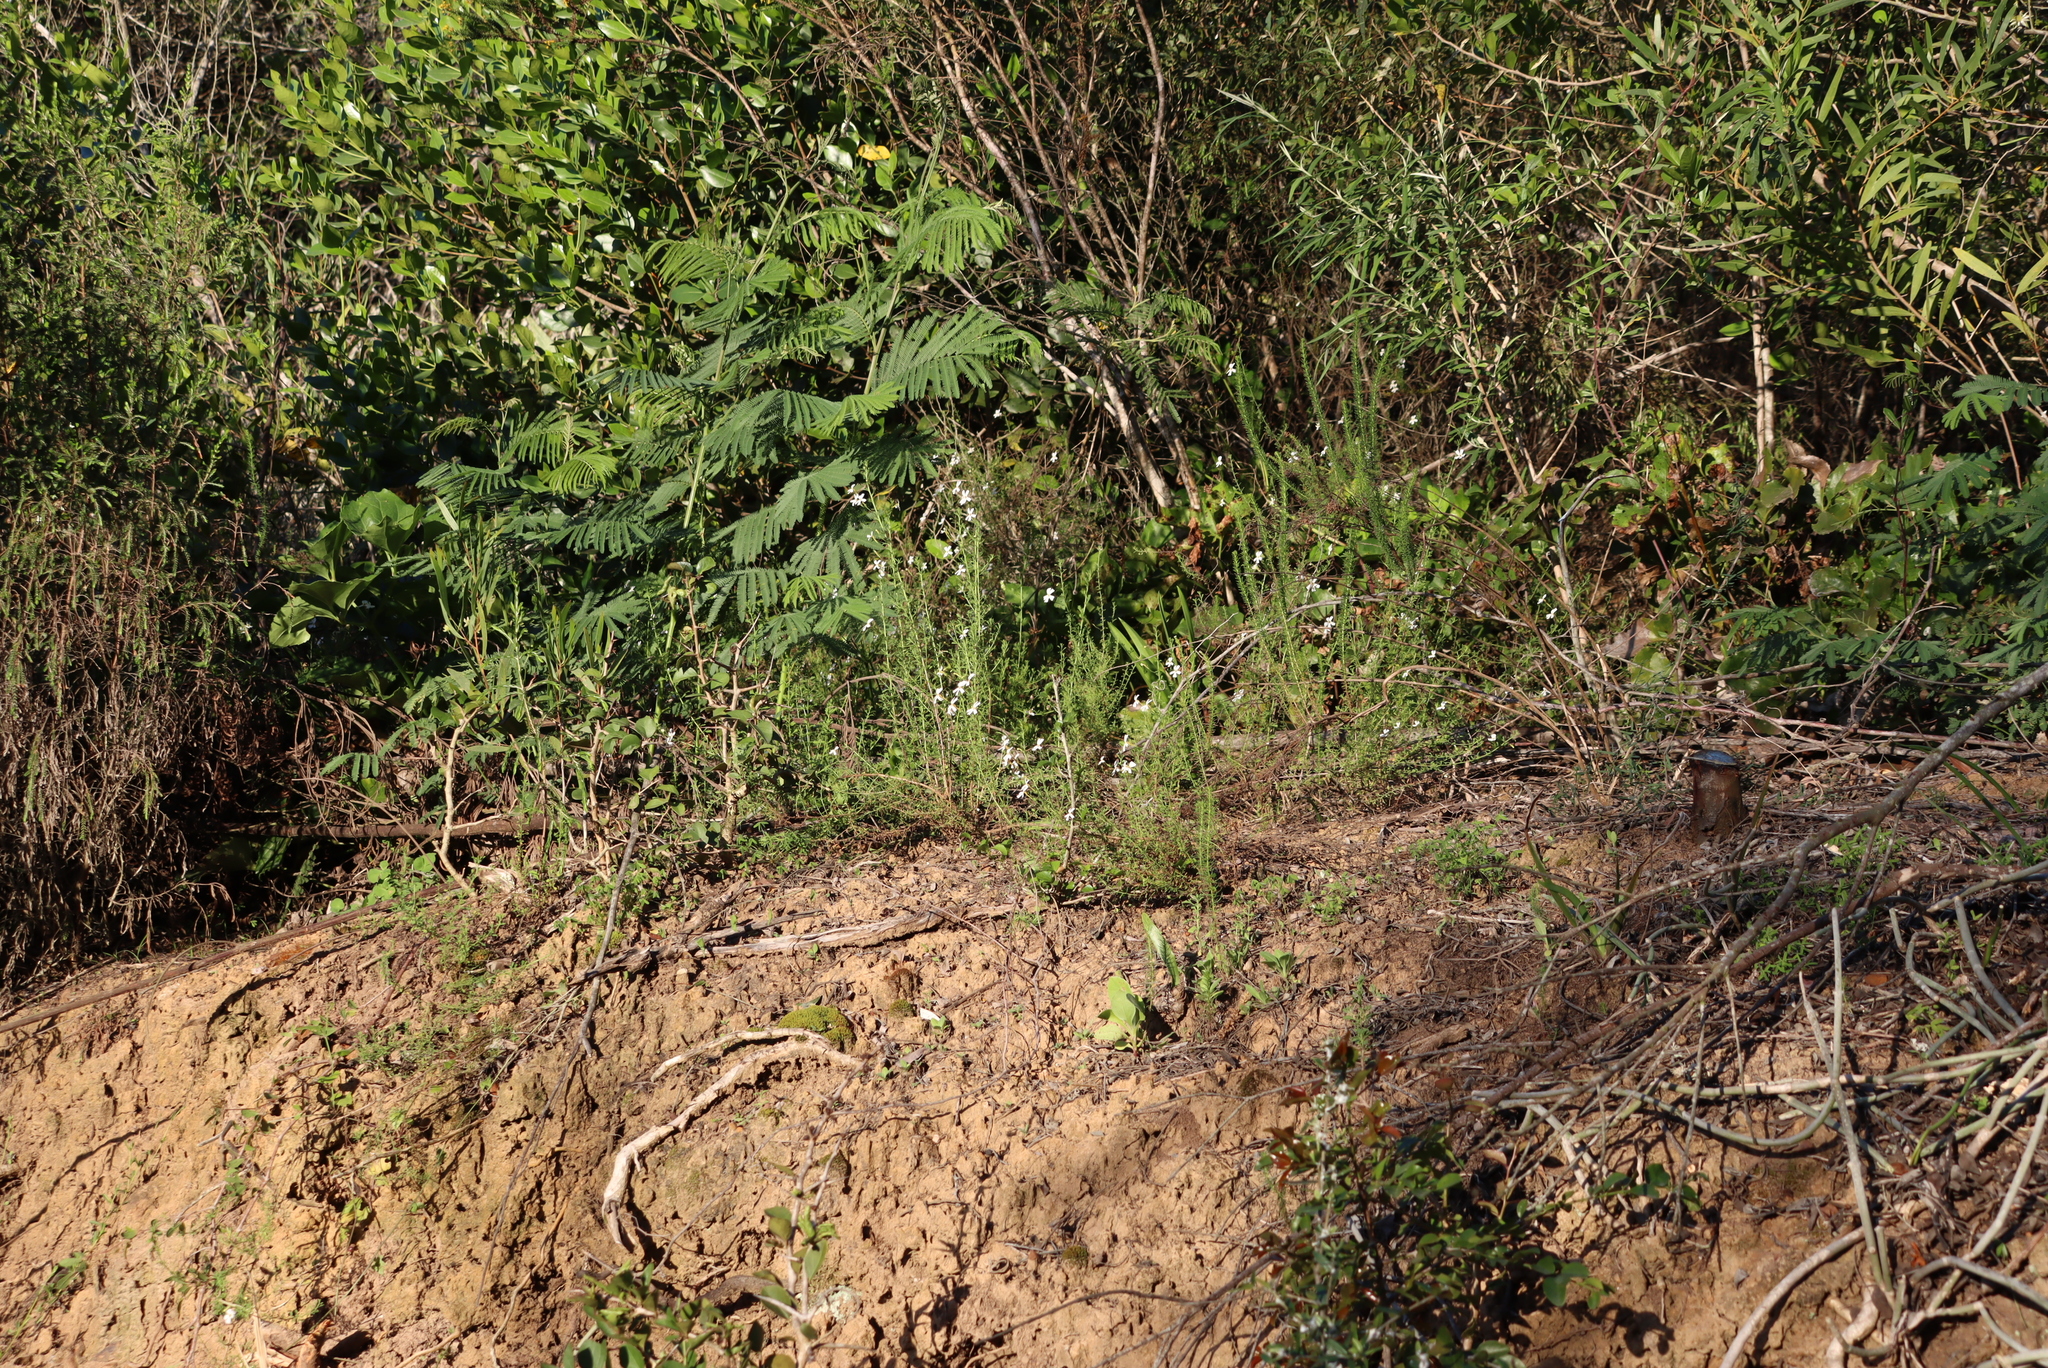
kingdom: Plantae
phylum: Tracheophyta
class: Magnoliopsida
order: Fabales
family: Fabaceae
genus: Acacia
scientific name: Acacia mearnsii
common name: Black wattle
